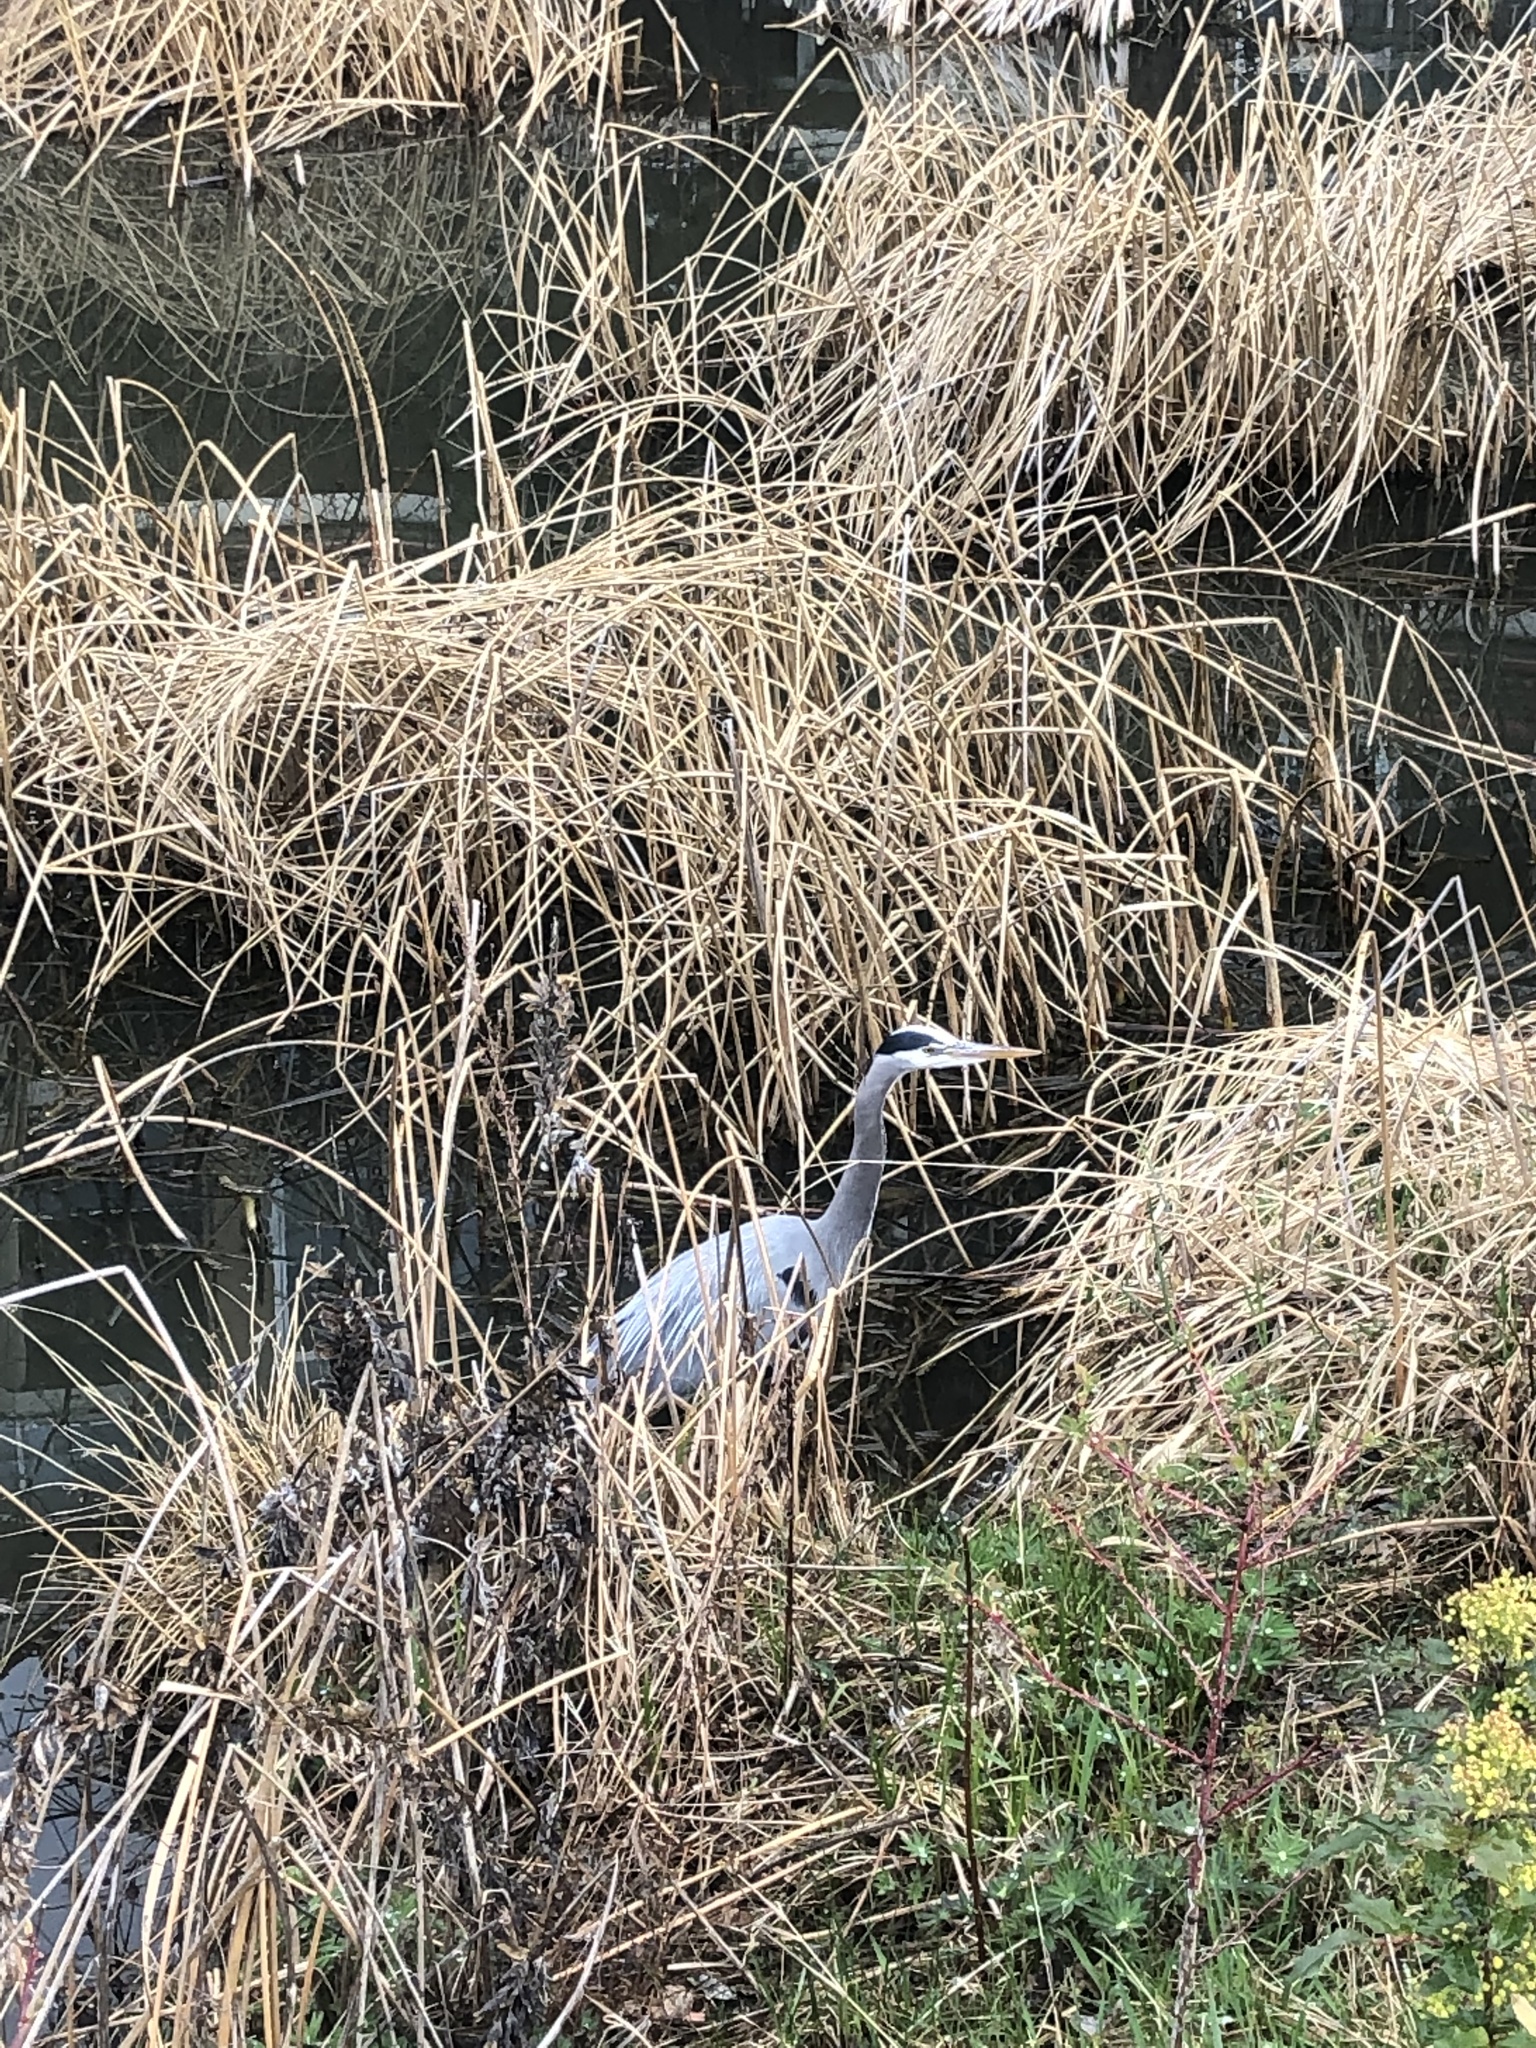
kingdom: Animalia
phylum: Chordata
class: Aves
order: Pelecaniformes
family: Ardeidae
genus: Ardea
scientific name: Ardea herodias
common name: Great blue heron
